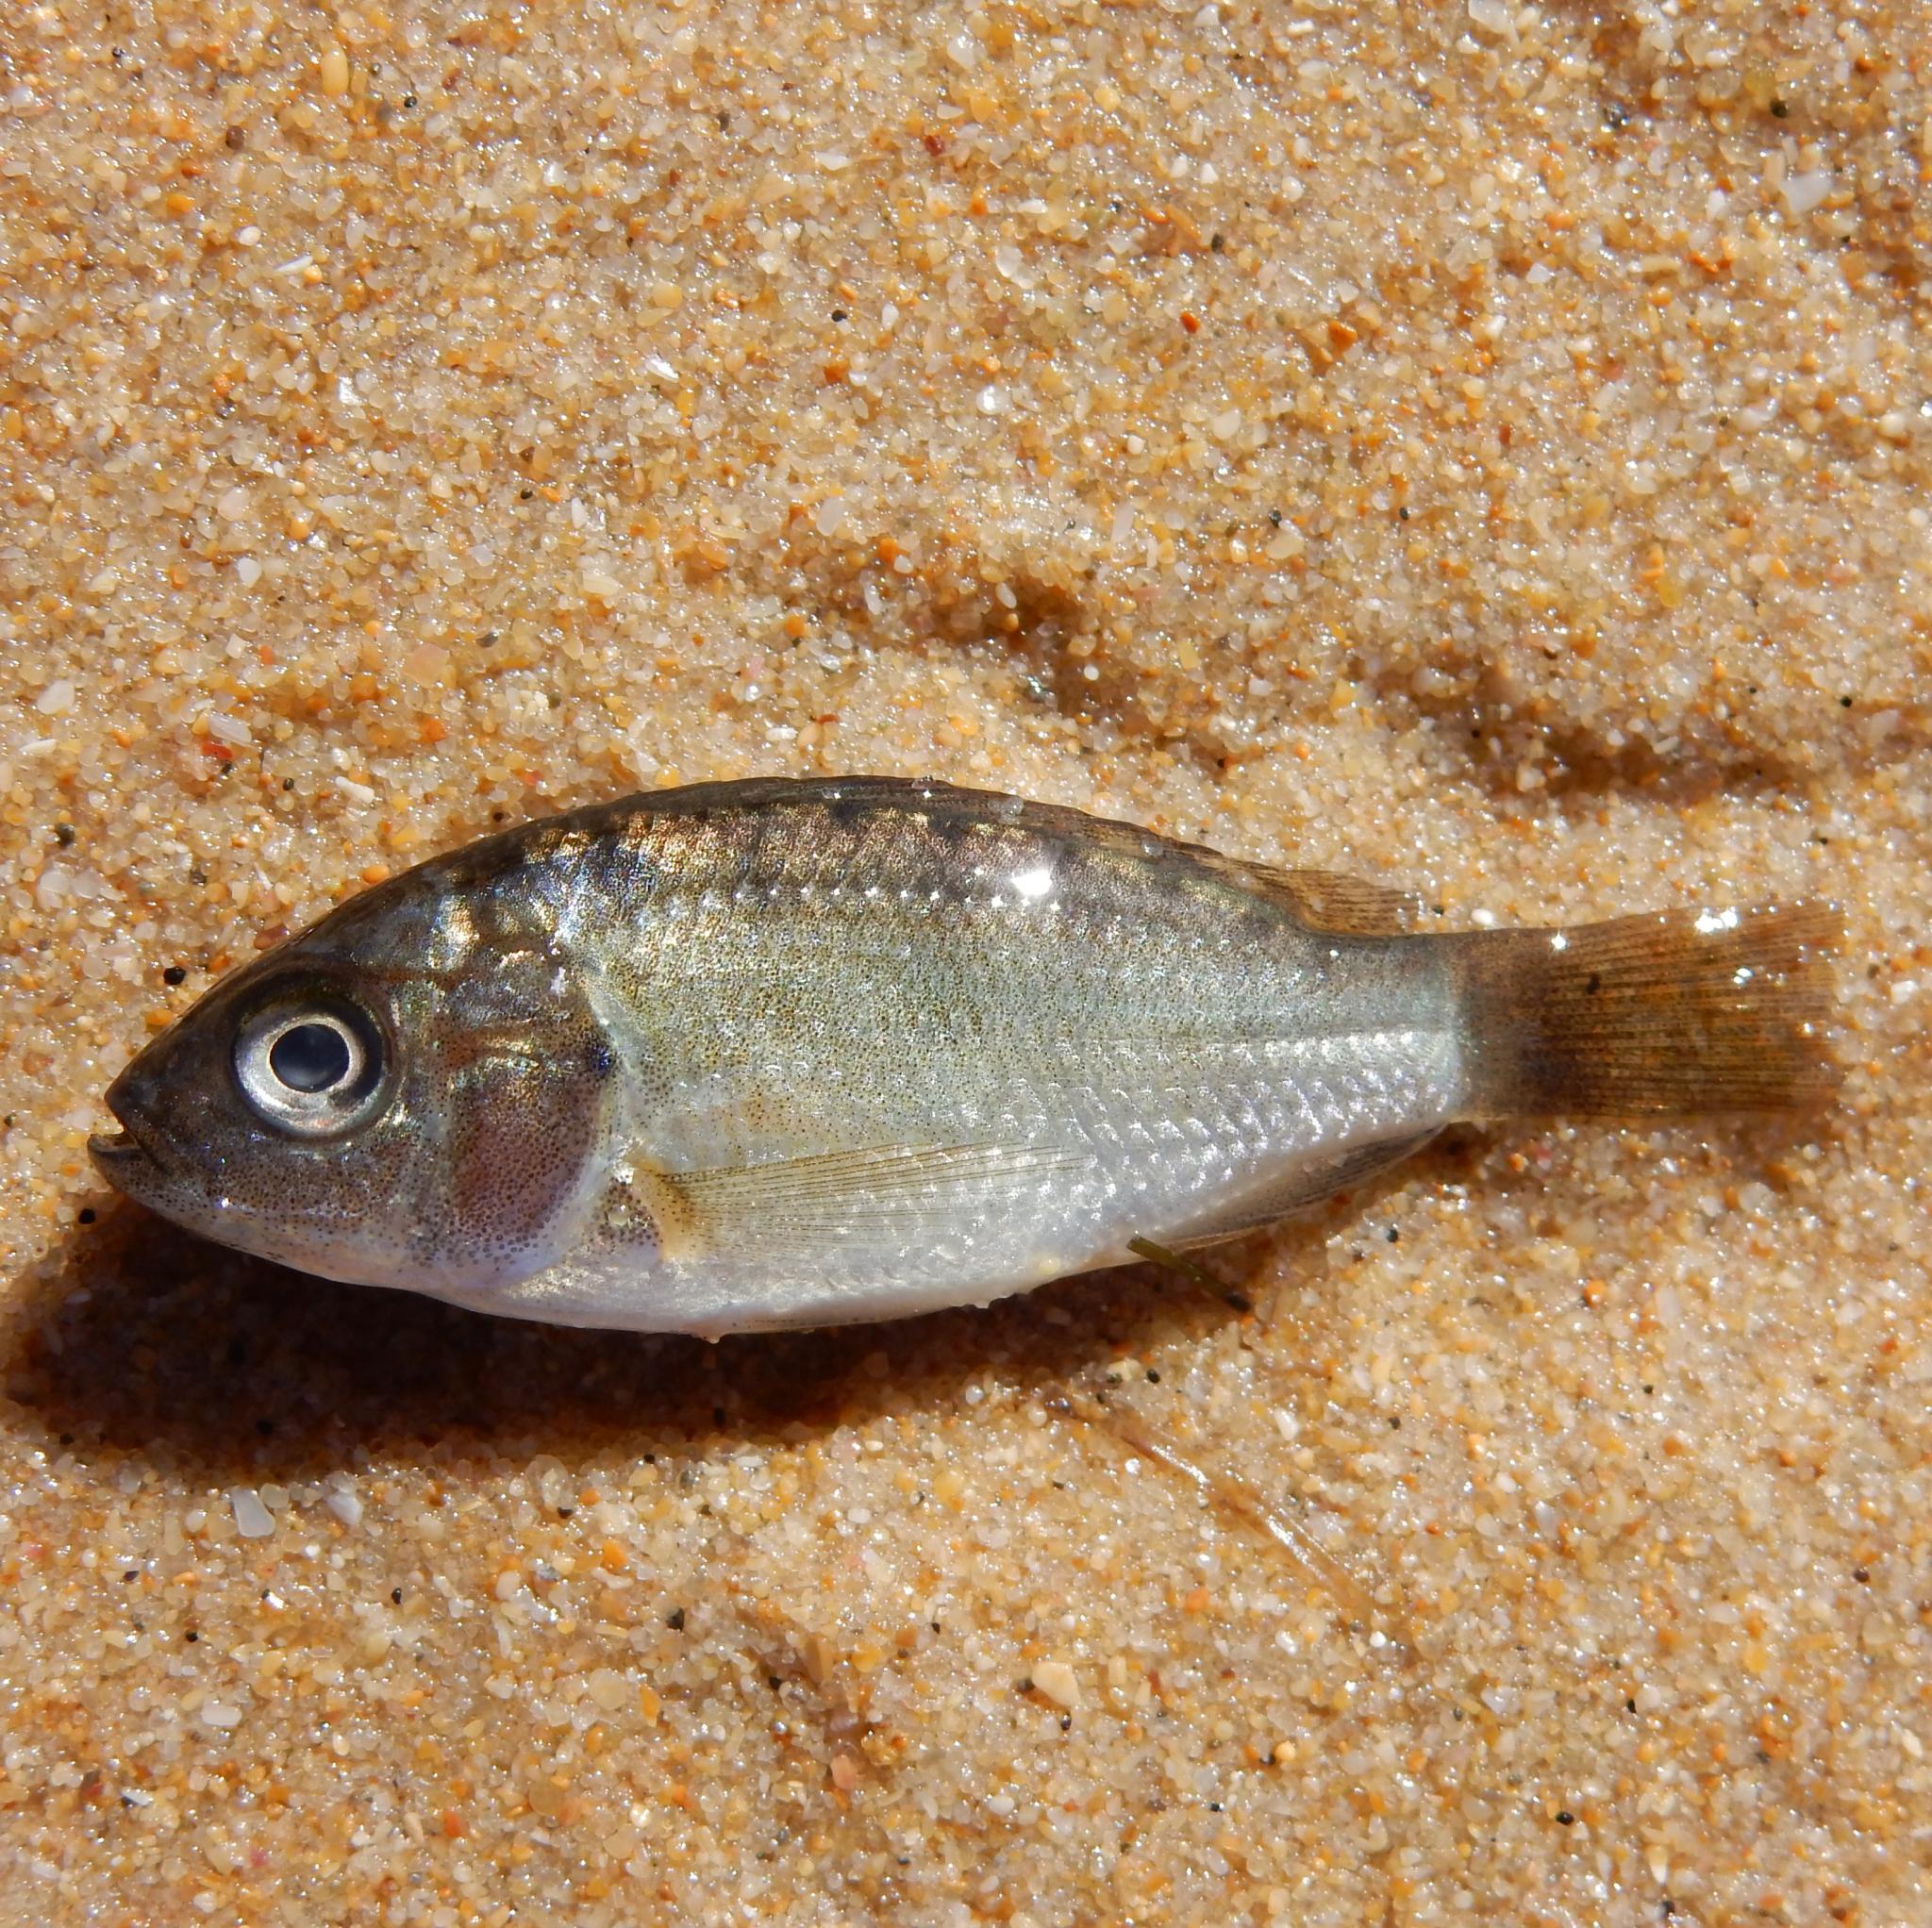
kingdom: Animalia
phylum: Chordata
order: Perciformes
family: Cichlidae
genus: Oreochromis
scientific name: Oreochromis mossambicus
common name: Mozambique tilapia
